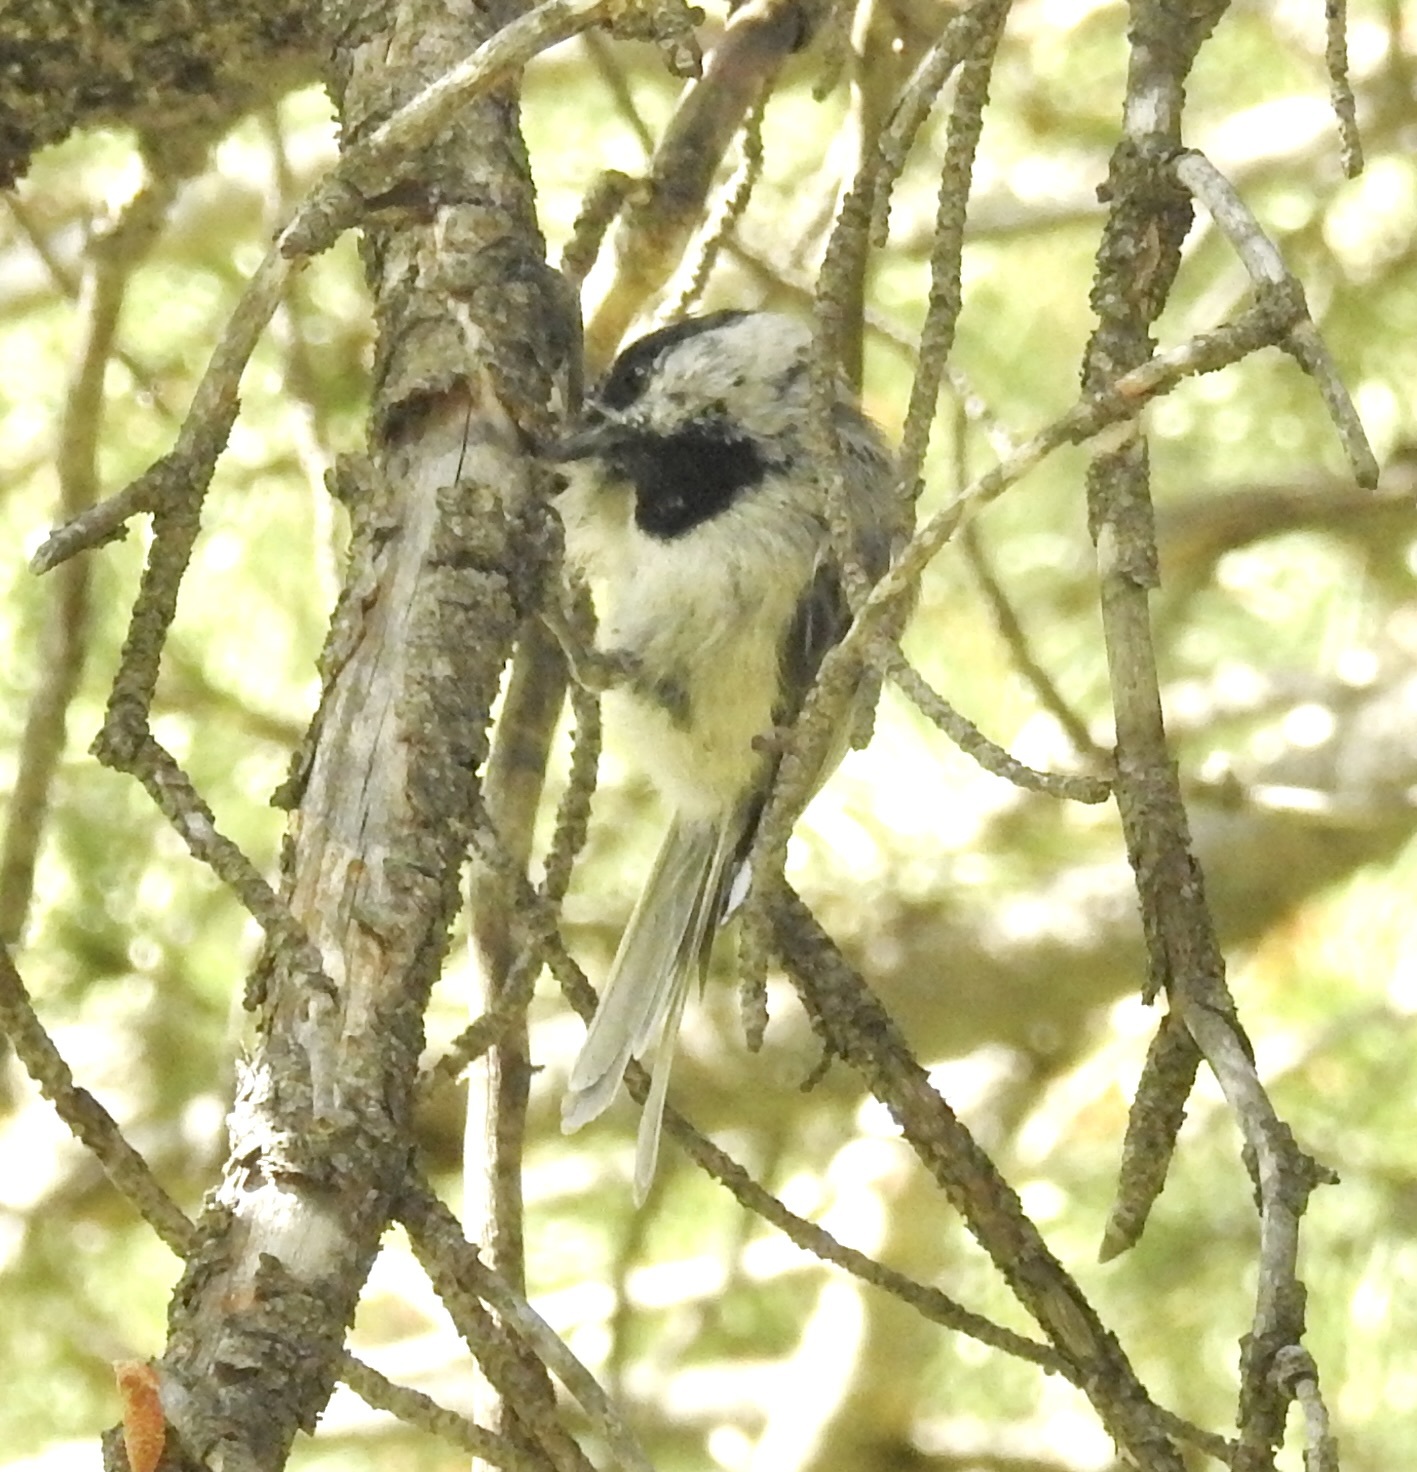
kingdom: Animalia
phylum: Chordata
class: Aves
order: Passeriformes
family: Paridae
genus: Poecile
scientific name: Poecile gambeli
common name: Mountain chickadee
